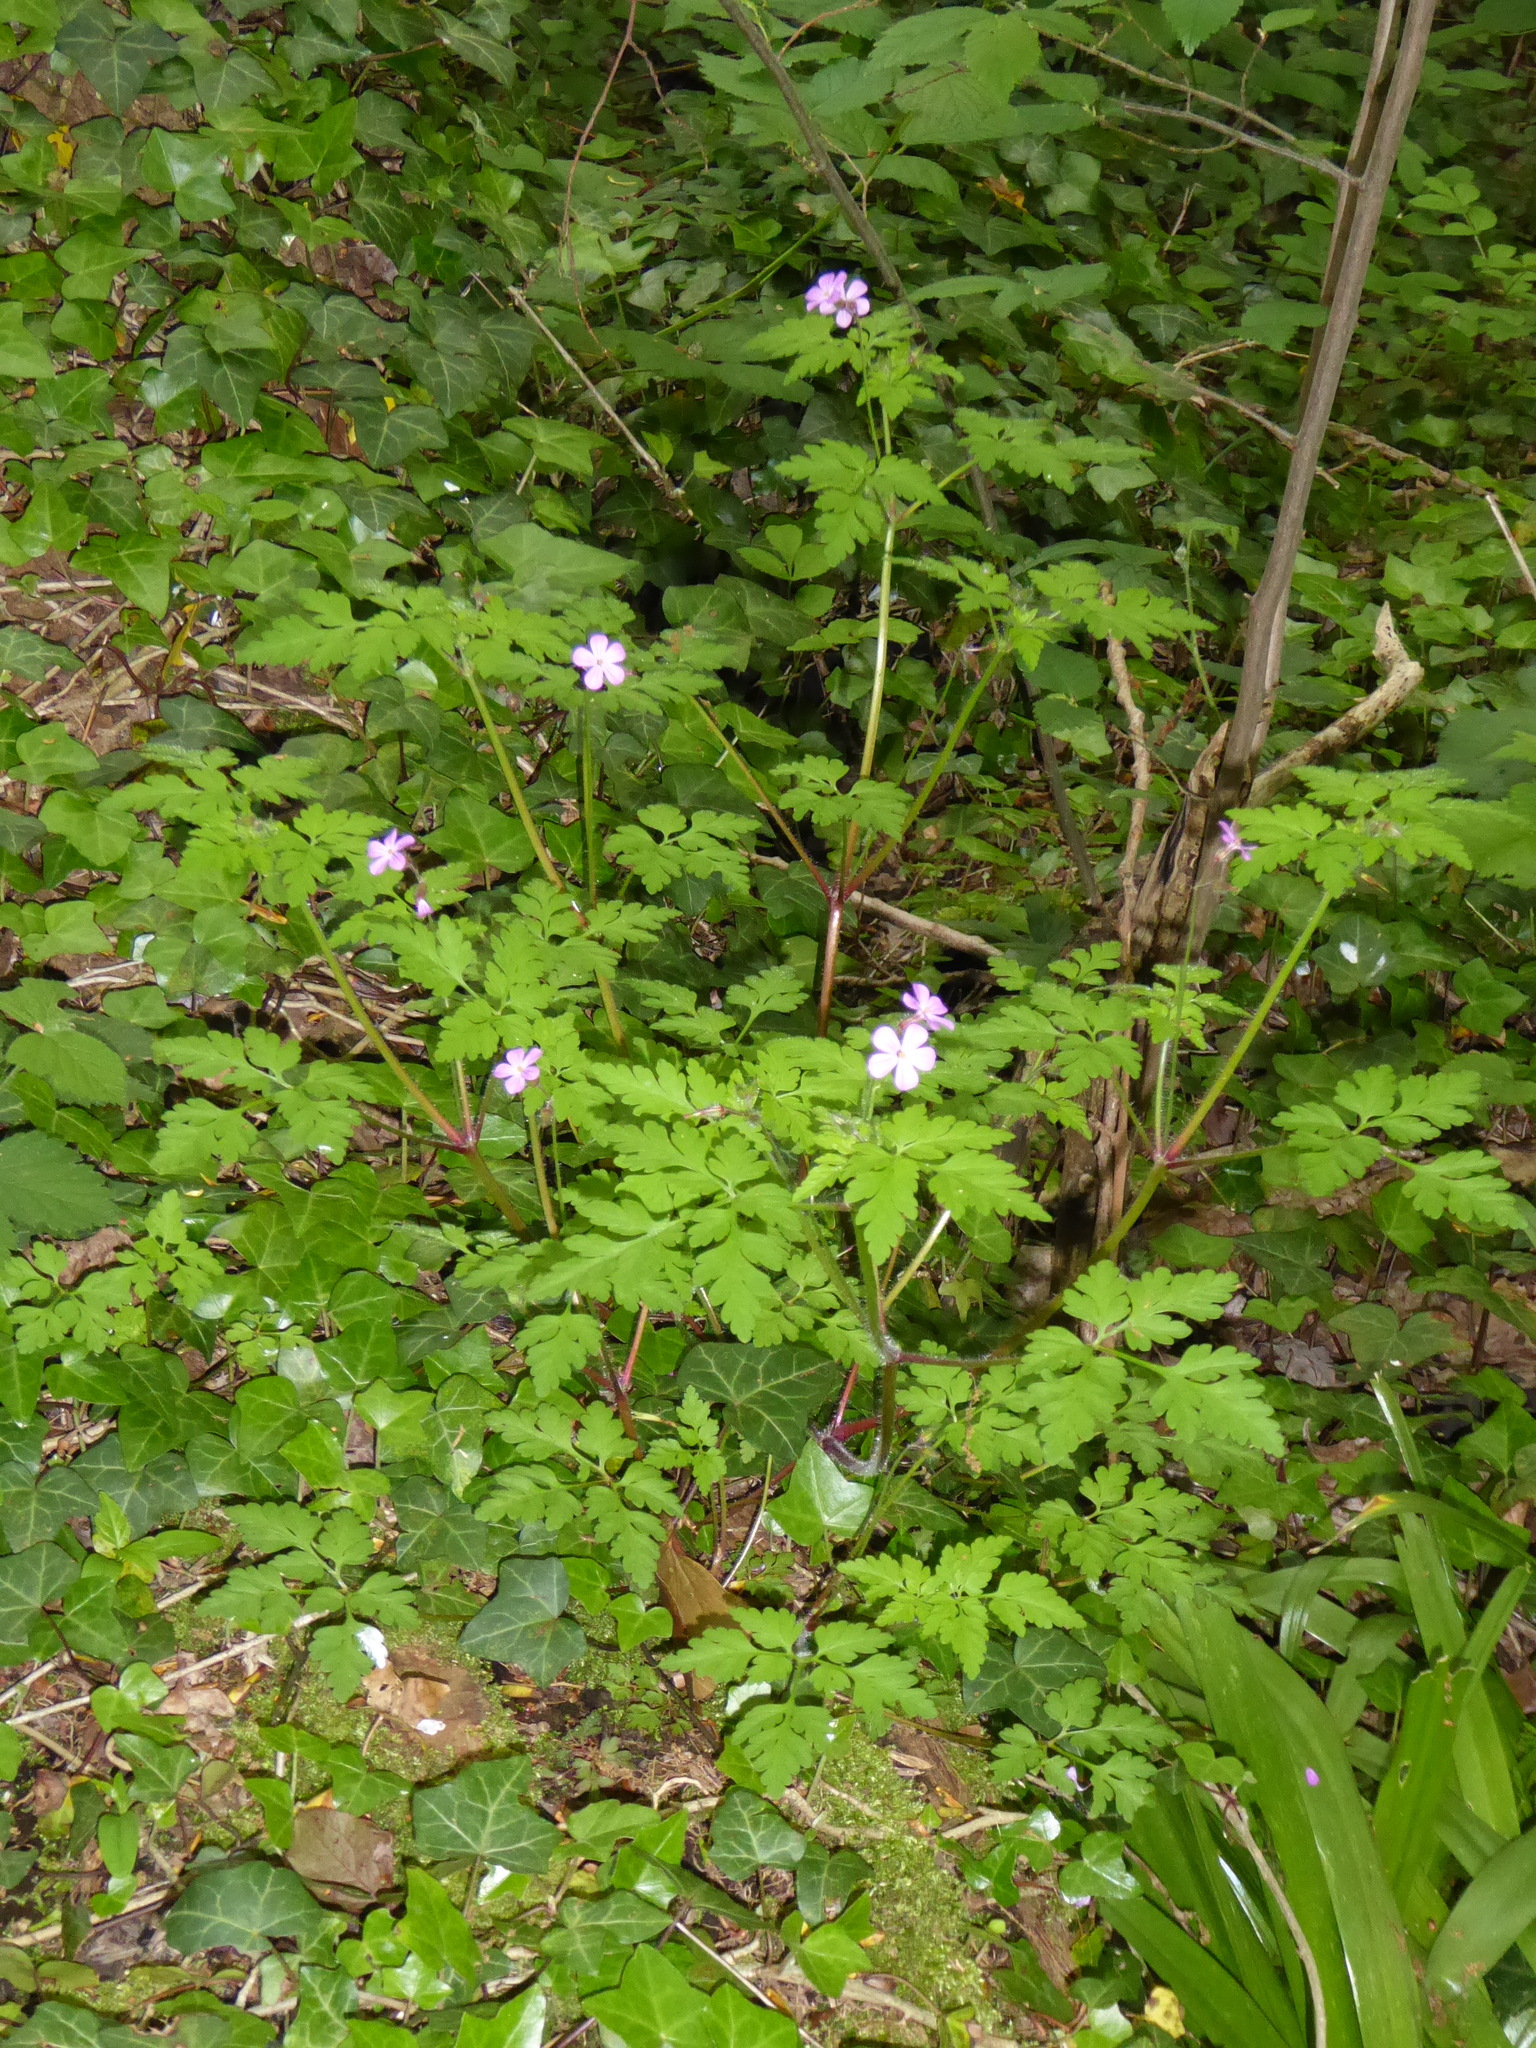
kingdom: Plantae
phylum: Tracheophyta
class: Magnoliopsida
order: Geraniales
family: Geraniaceae
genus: Geranium
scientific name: Geranium robertianum
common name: Herb-robert
